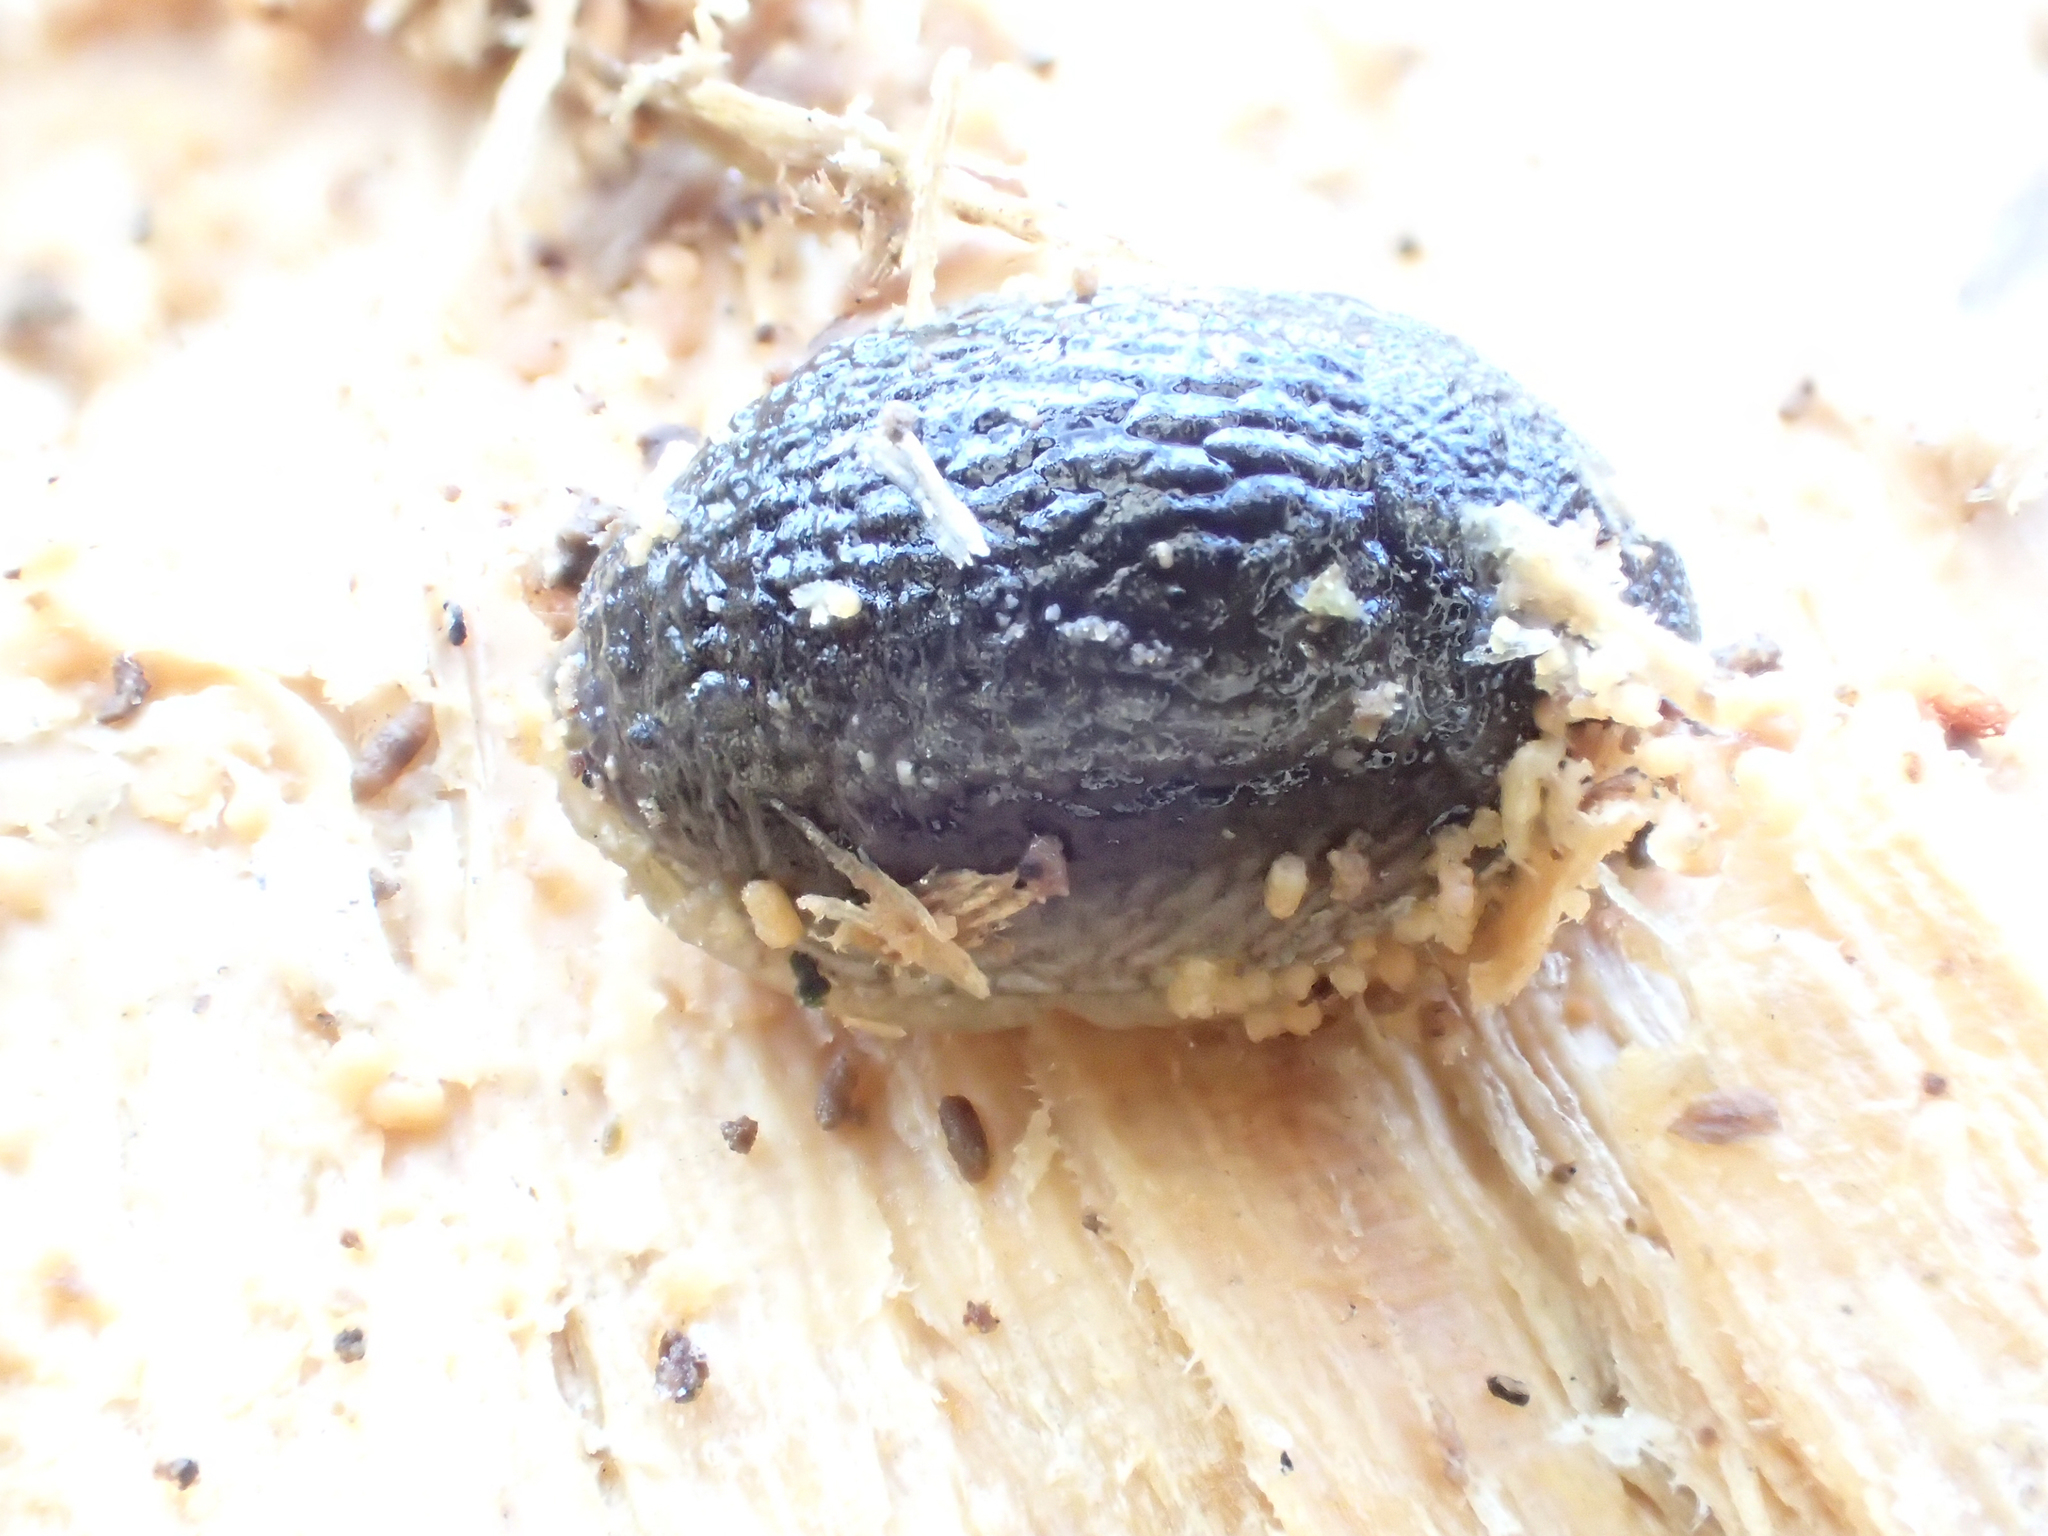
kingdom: Animalia
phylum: Mollusca
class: Gastropoda
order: Stylommatophora
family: Arionidae
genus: Arion
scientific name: Arion hortensis
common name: Garden arion
